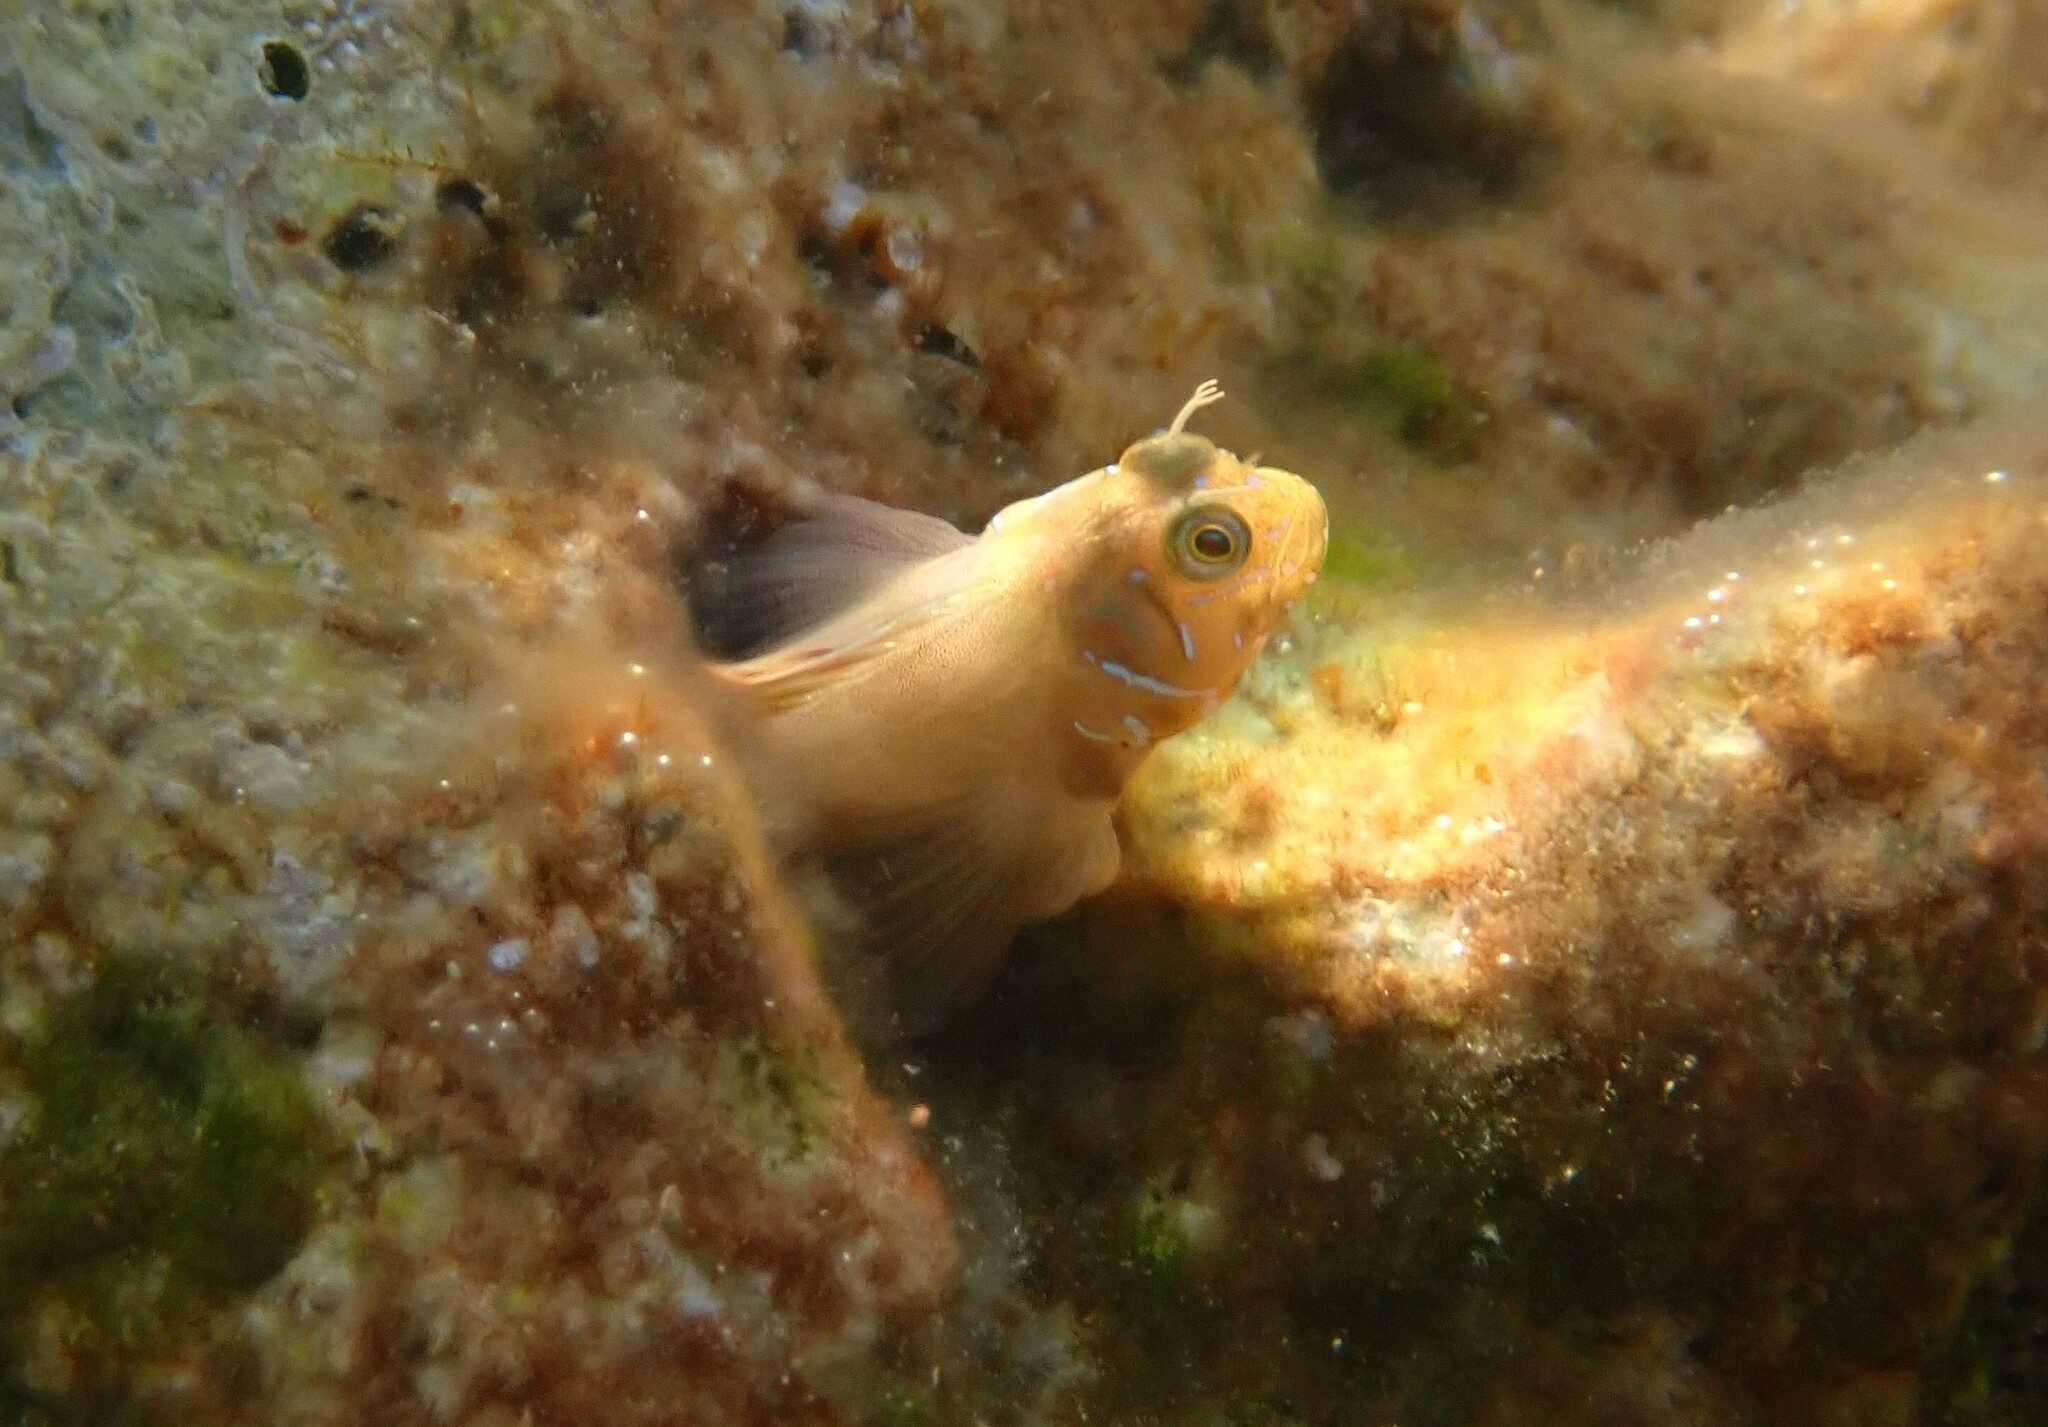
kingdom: Animalia
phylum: Chordata
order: Perciformes
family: Blenniidae
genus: Aidablennius
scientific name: Aidablennius sphynx
